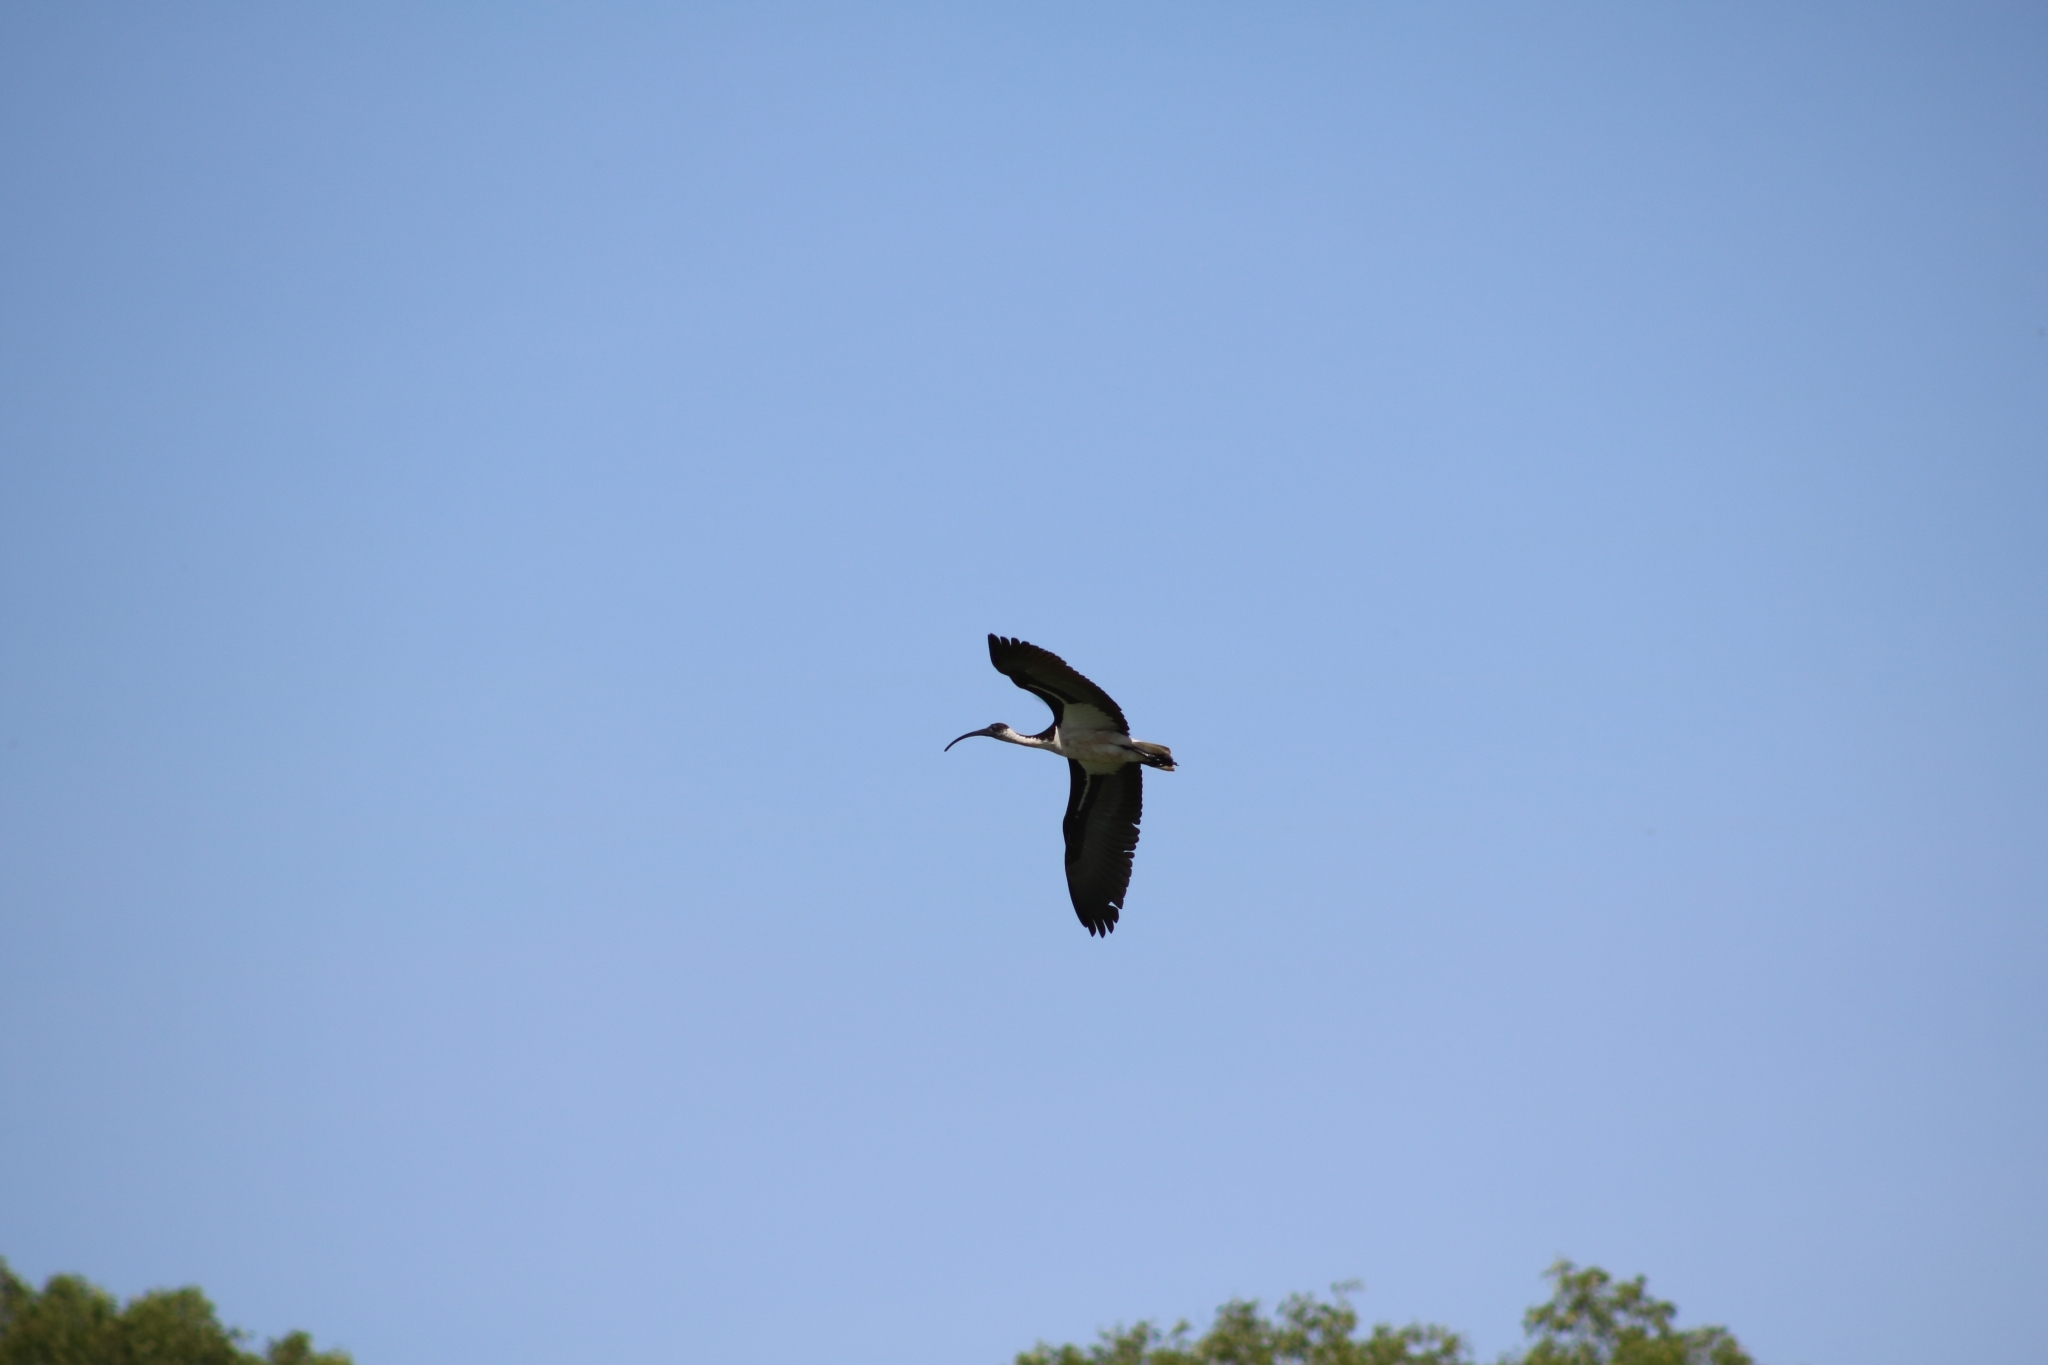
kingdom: Animalia
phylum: Chordata
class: Aves
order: Pelecaniformes
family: Threskiornithidae
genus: Threskiornis
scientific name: Threskiornis spinicollis
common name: Straw-necked ibis
